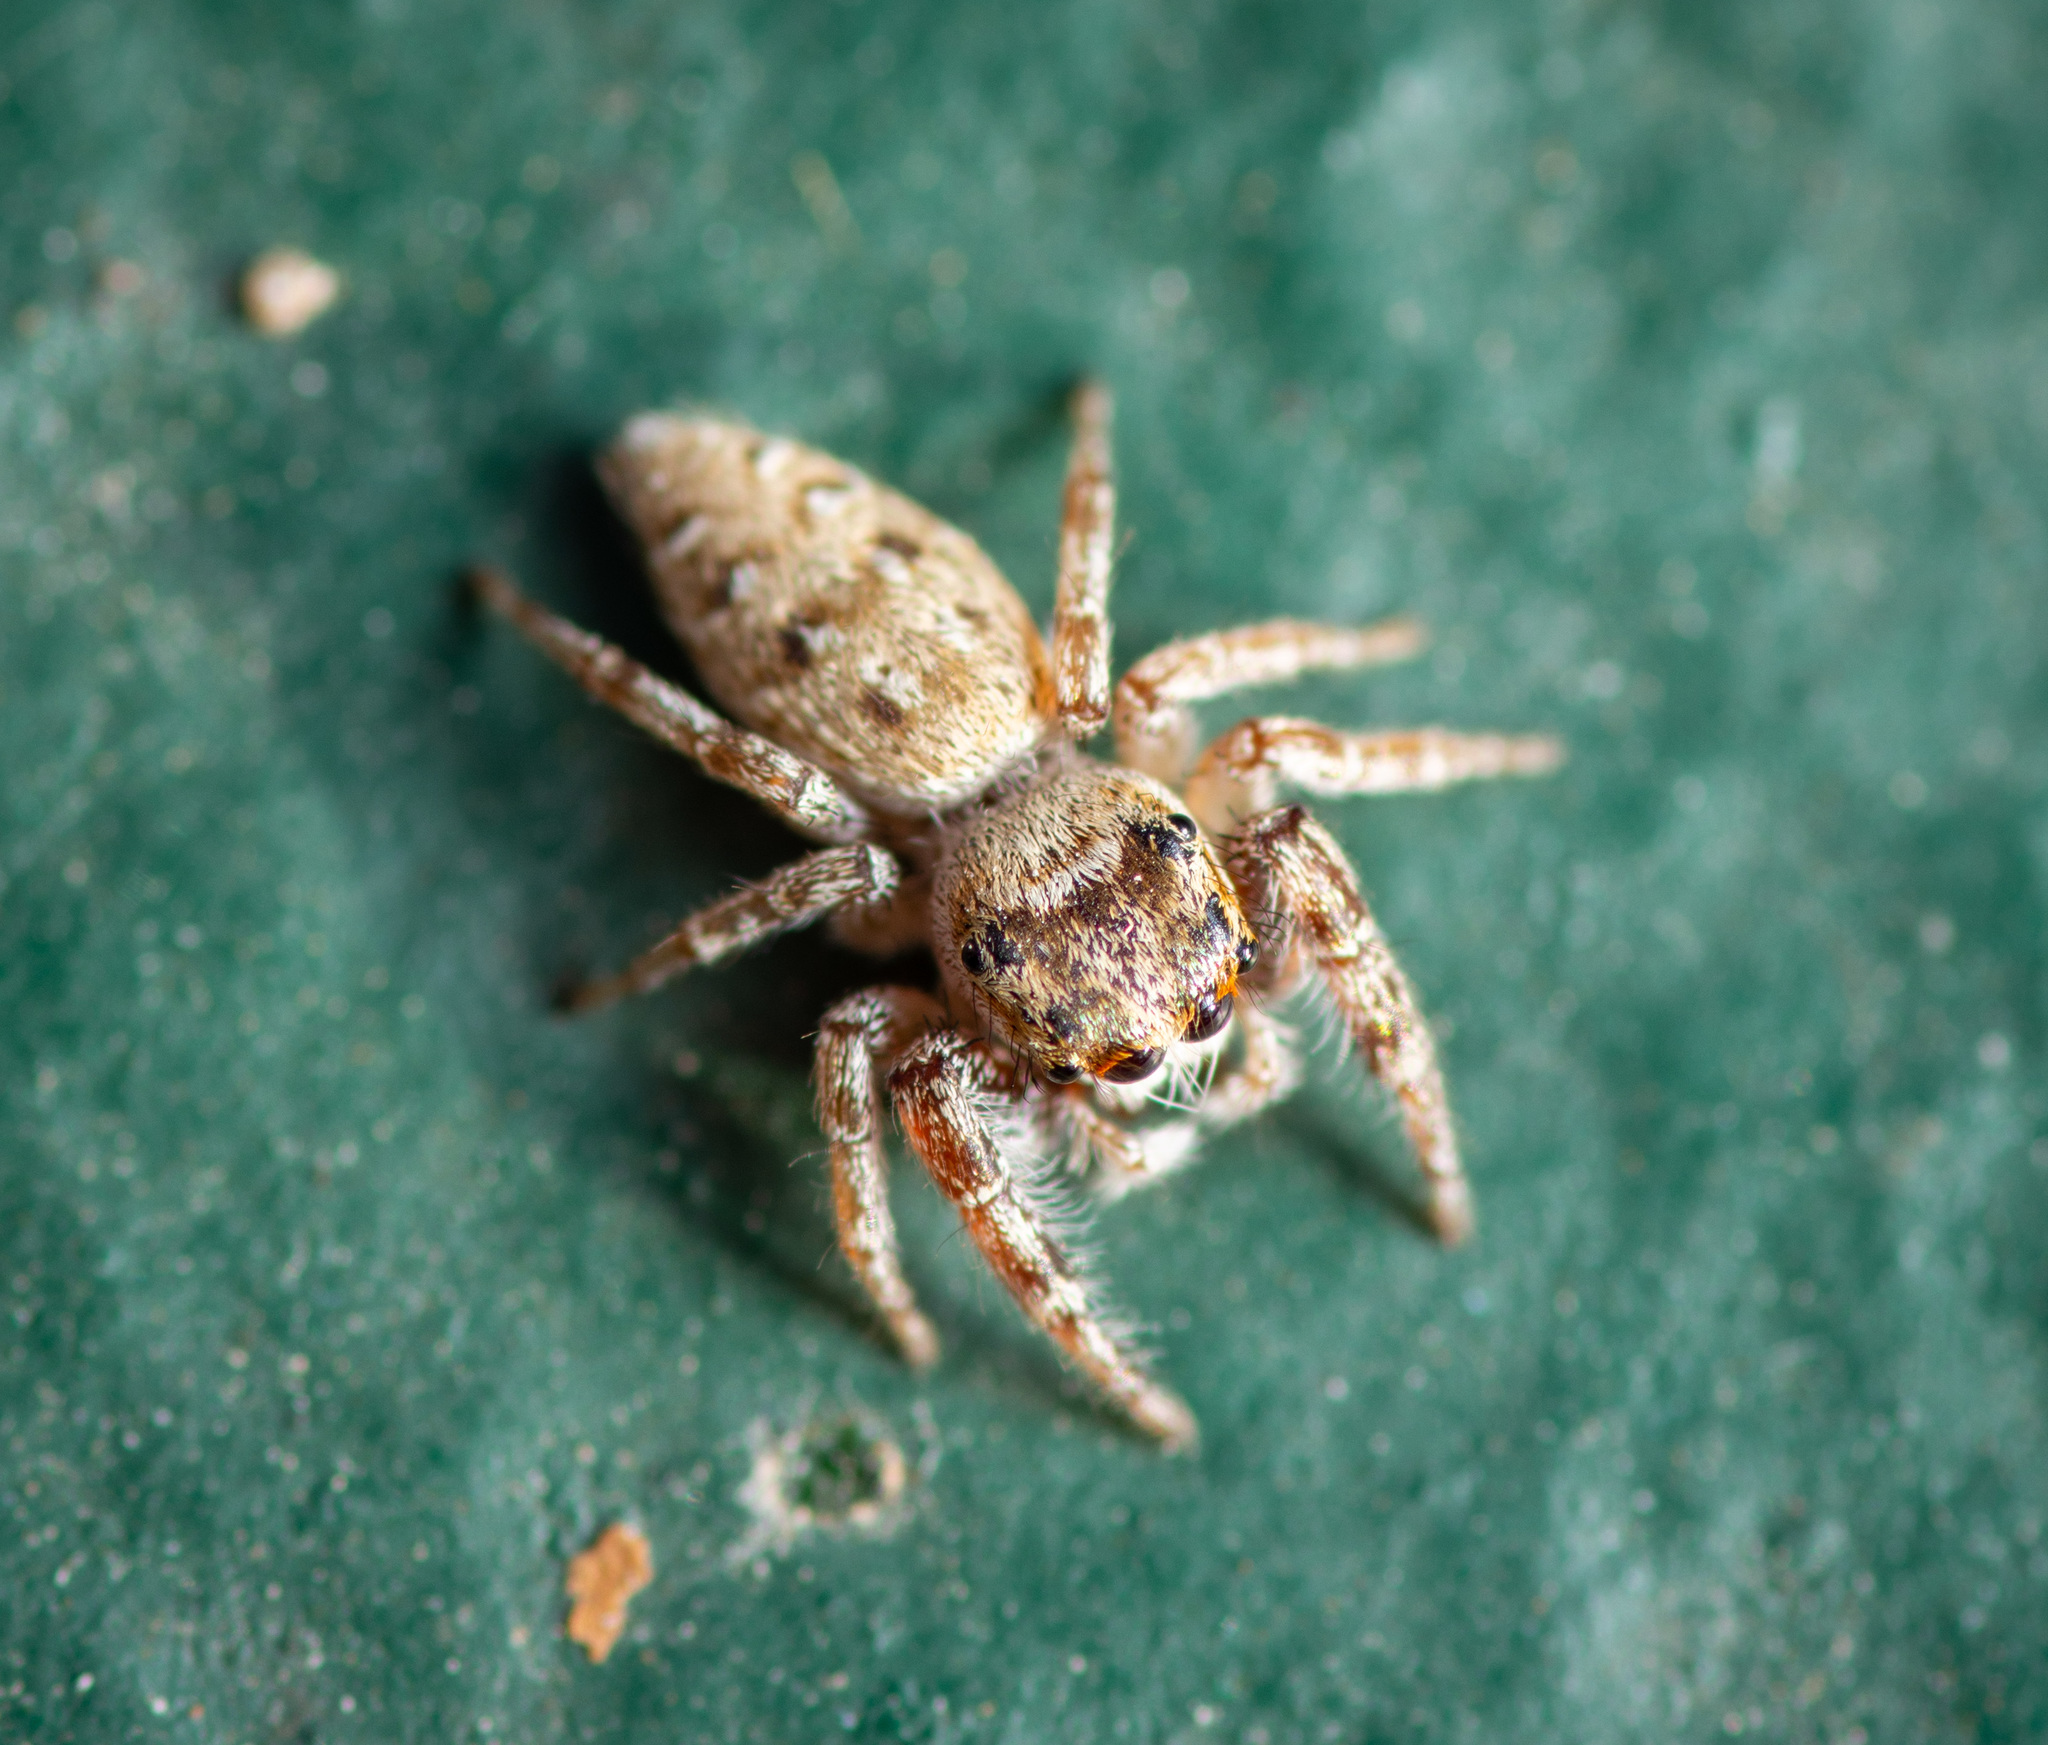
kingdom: Animalia
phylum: Arthropoda
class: Arachnida
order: Araneae
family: Salticidae
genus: Bagheera
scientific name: Bagheera prosper
